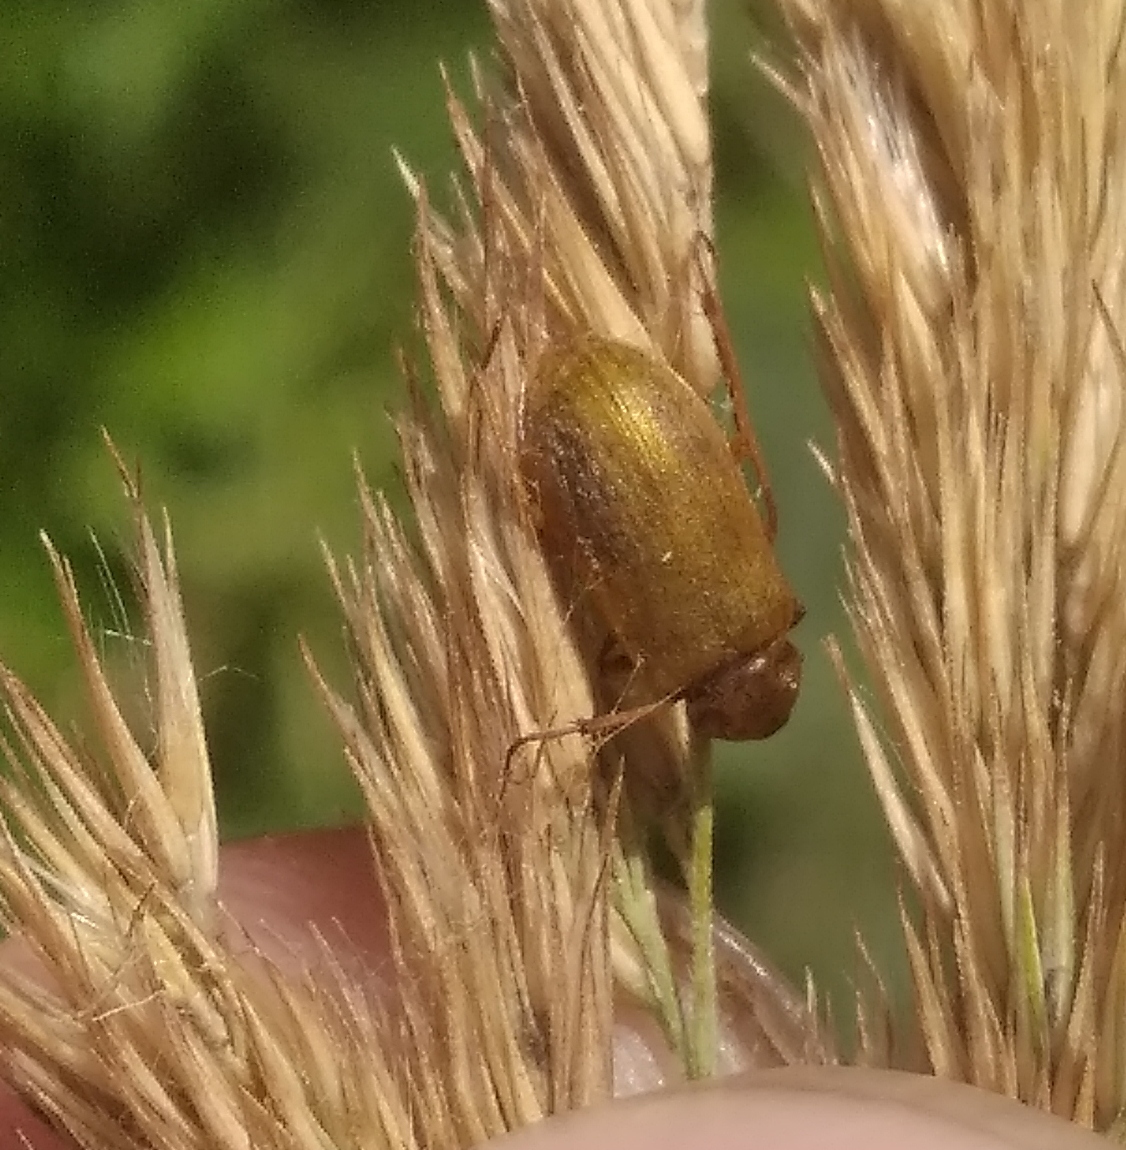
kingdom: Animalia
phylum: Arthropoda
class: Insecta
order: Coleoptera
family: Tenebrionidae
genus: Cteniopus
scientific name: Cteniopus sulphureus
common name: Sulphur beetle
